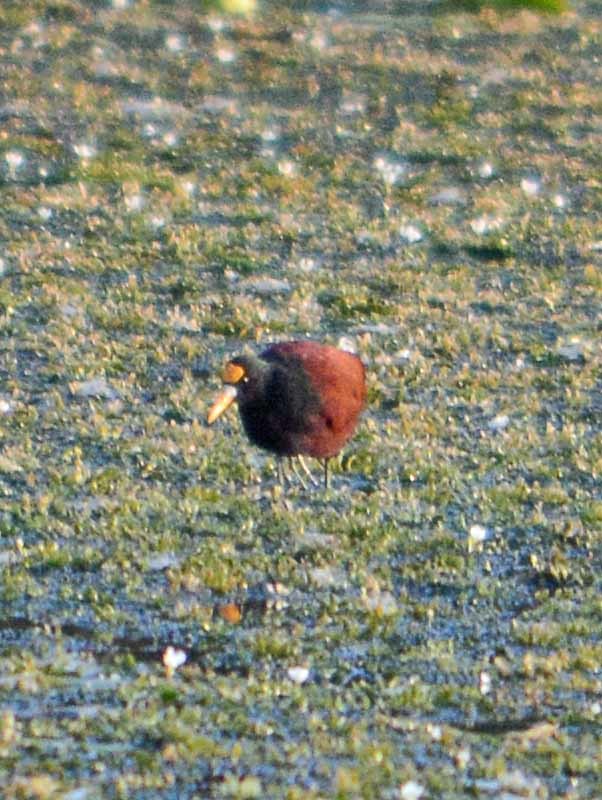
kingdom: Animalia
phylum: Chordata
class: Aves
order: Charadriiformes
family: Jacanidae
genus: Jacana
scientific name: Jacana spinosa
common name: Northern jacana
